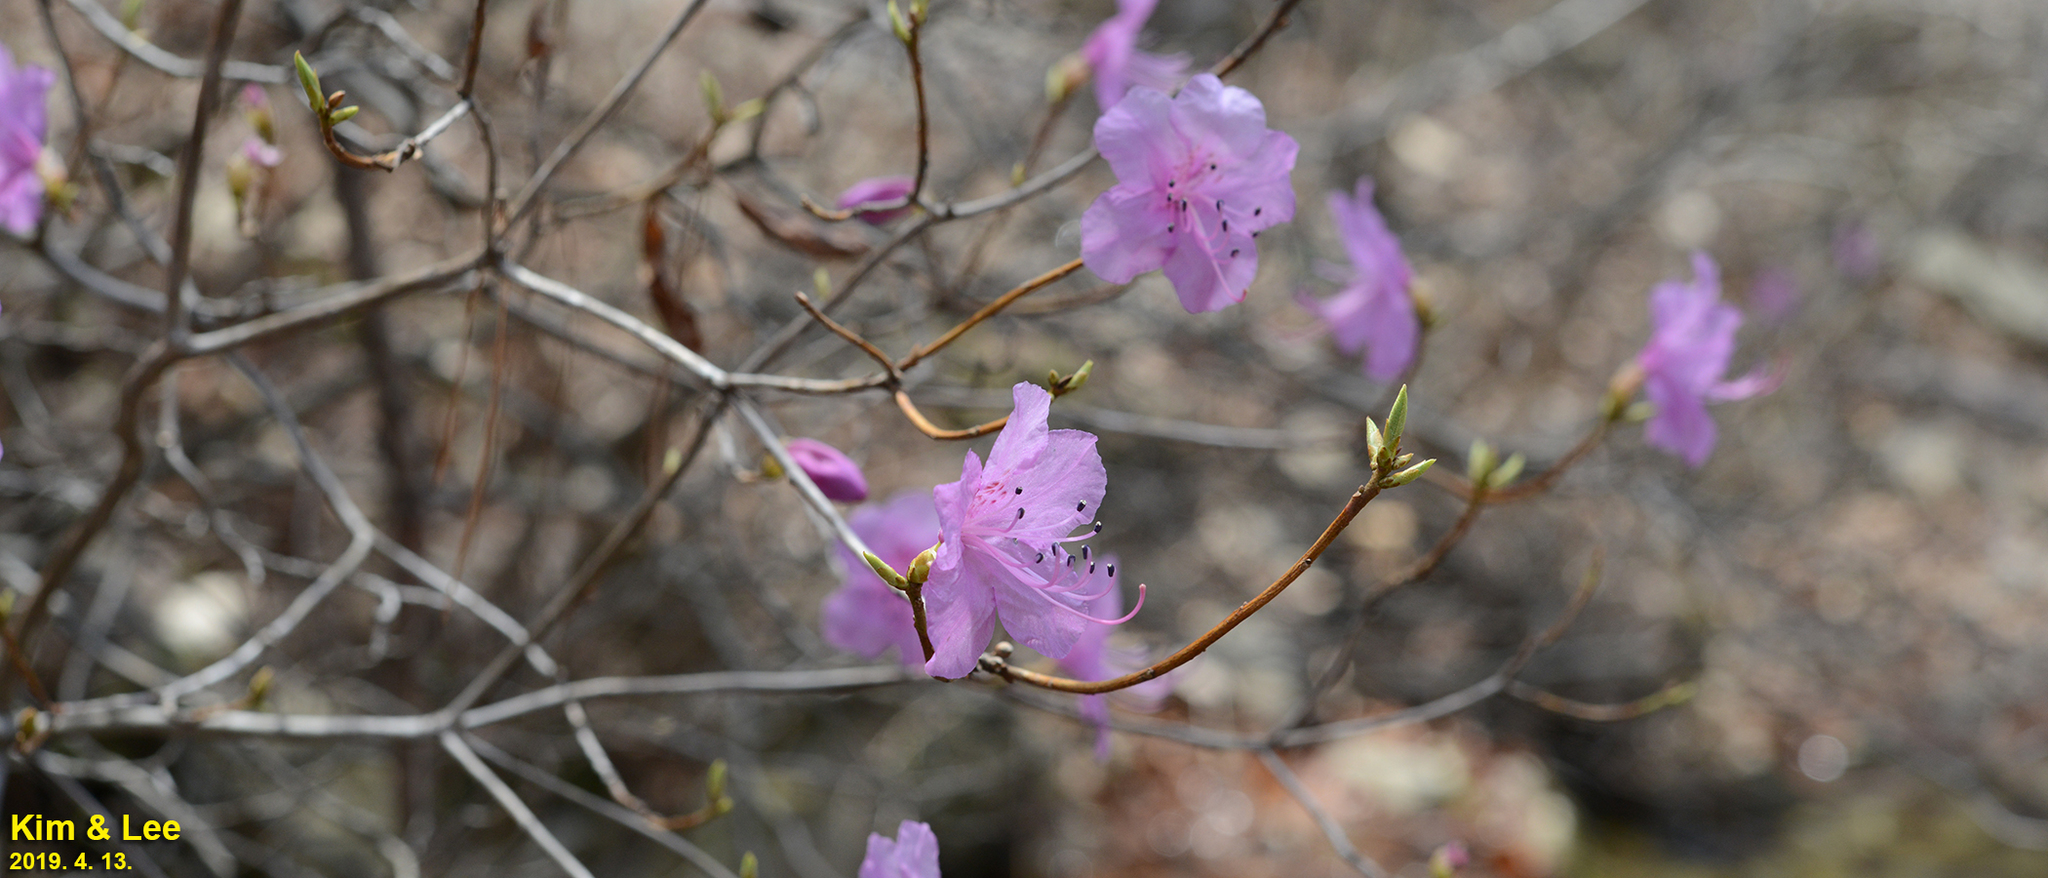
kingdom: Plantae
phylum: Tracheophyta
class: Magnoliopsida
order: Ericales
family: Ericaceae
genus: Rhododendron
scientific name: Rhododendron mucronulatum
